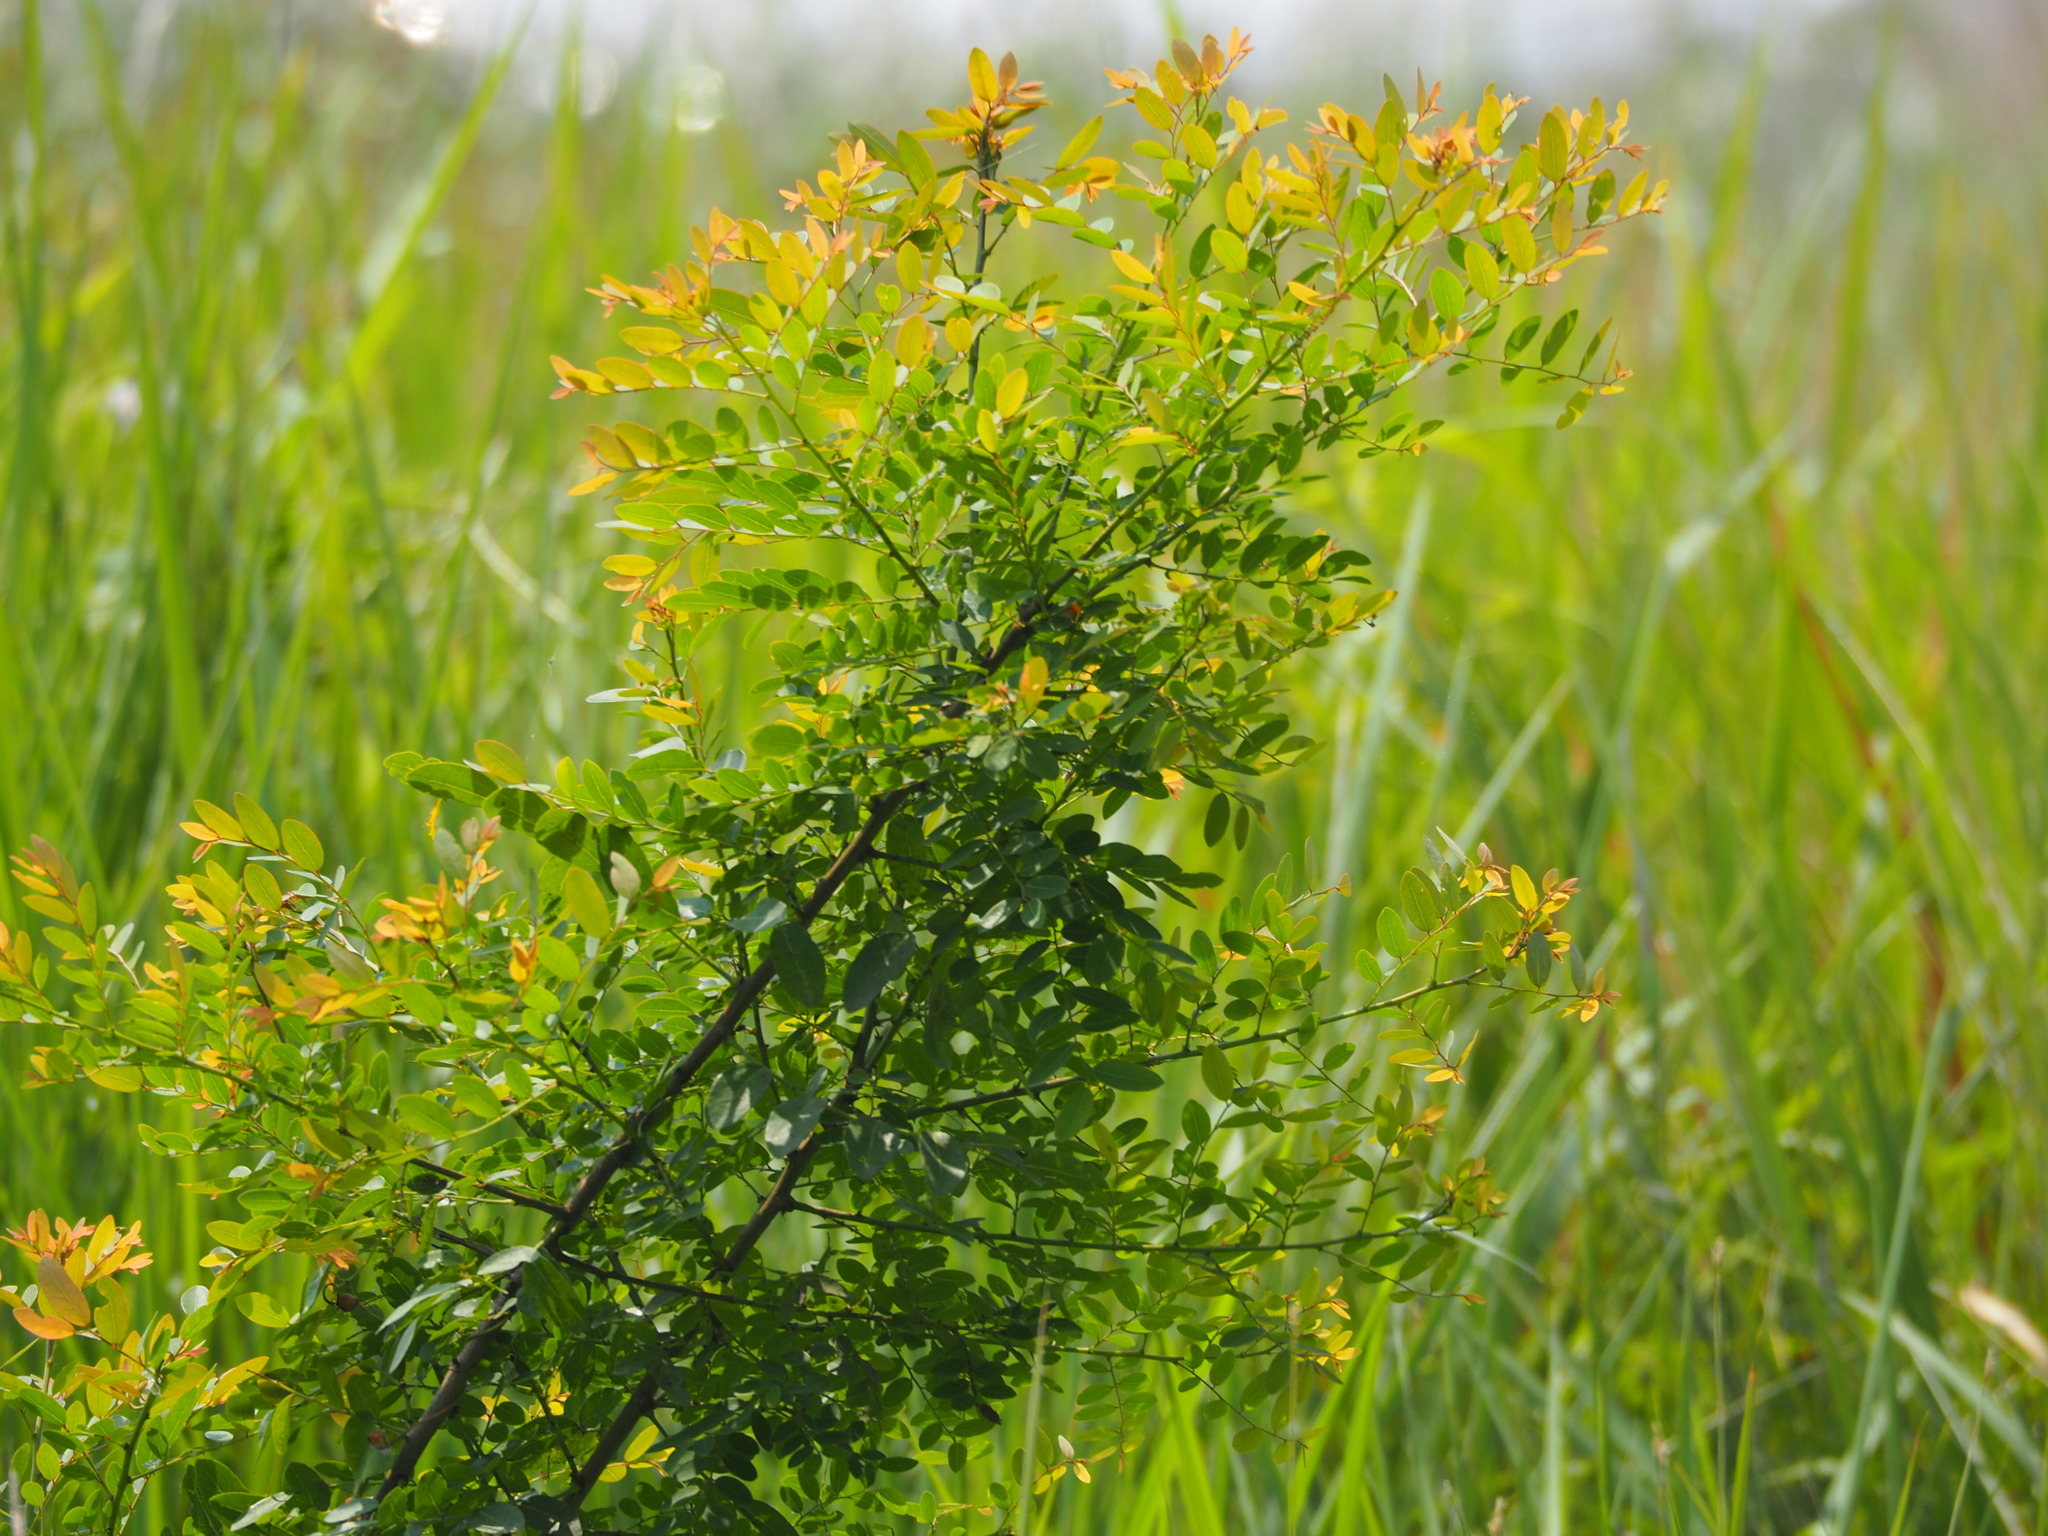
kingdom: Plantae
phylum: Tracheophyta
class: Magnoliopsida
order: Malpighiales
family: Phyllanthaceae
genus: Phyllanthus
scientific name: Phyllanthus reticulatus
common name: Potato bush
